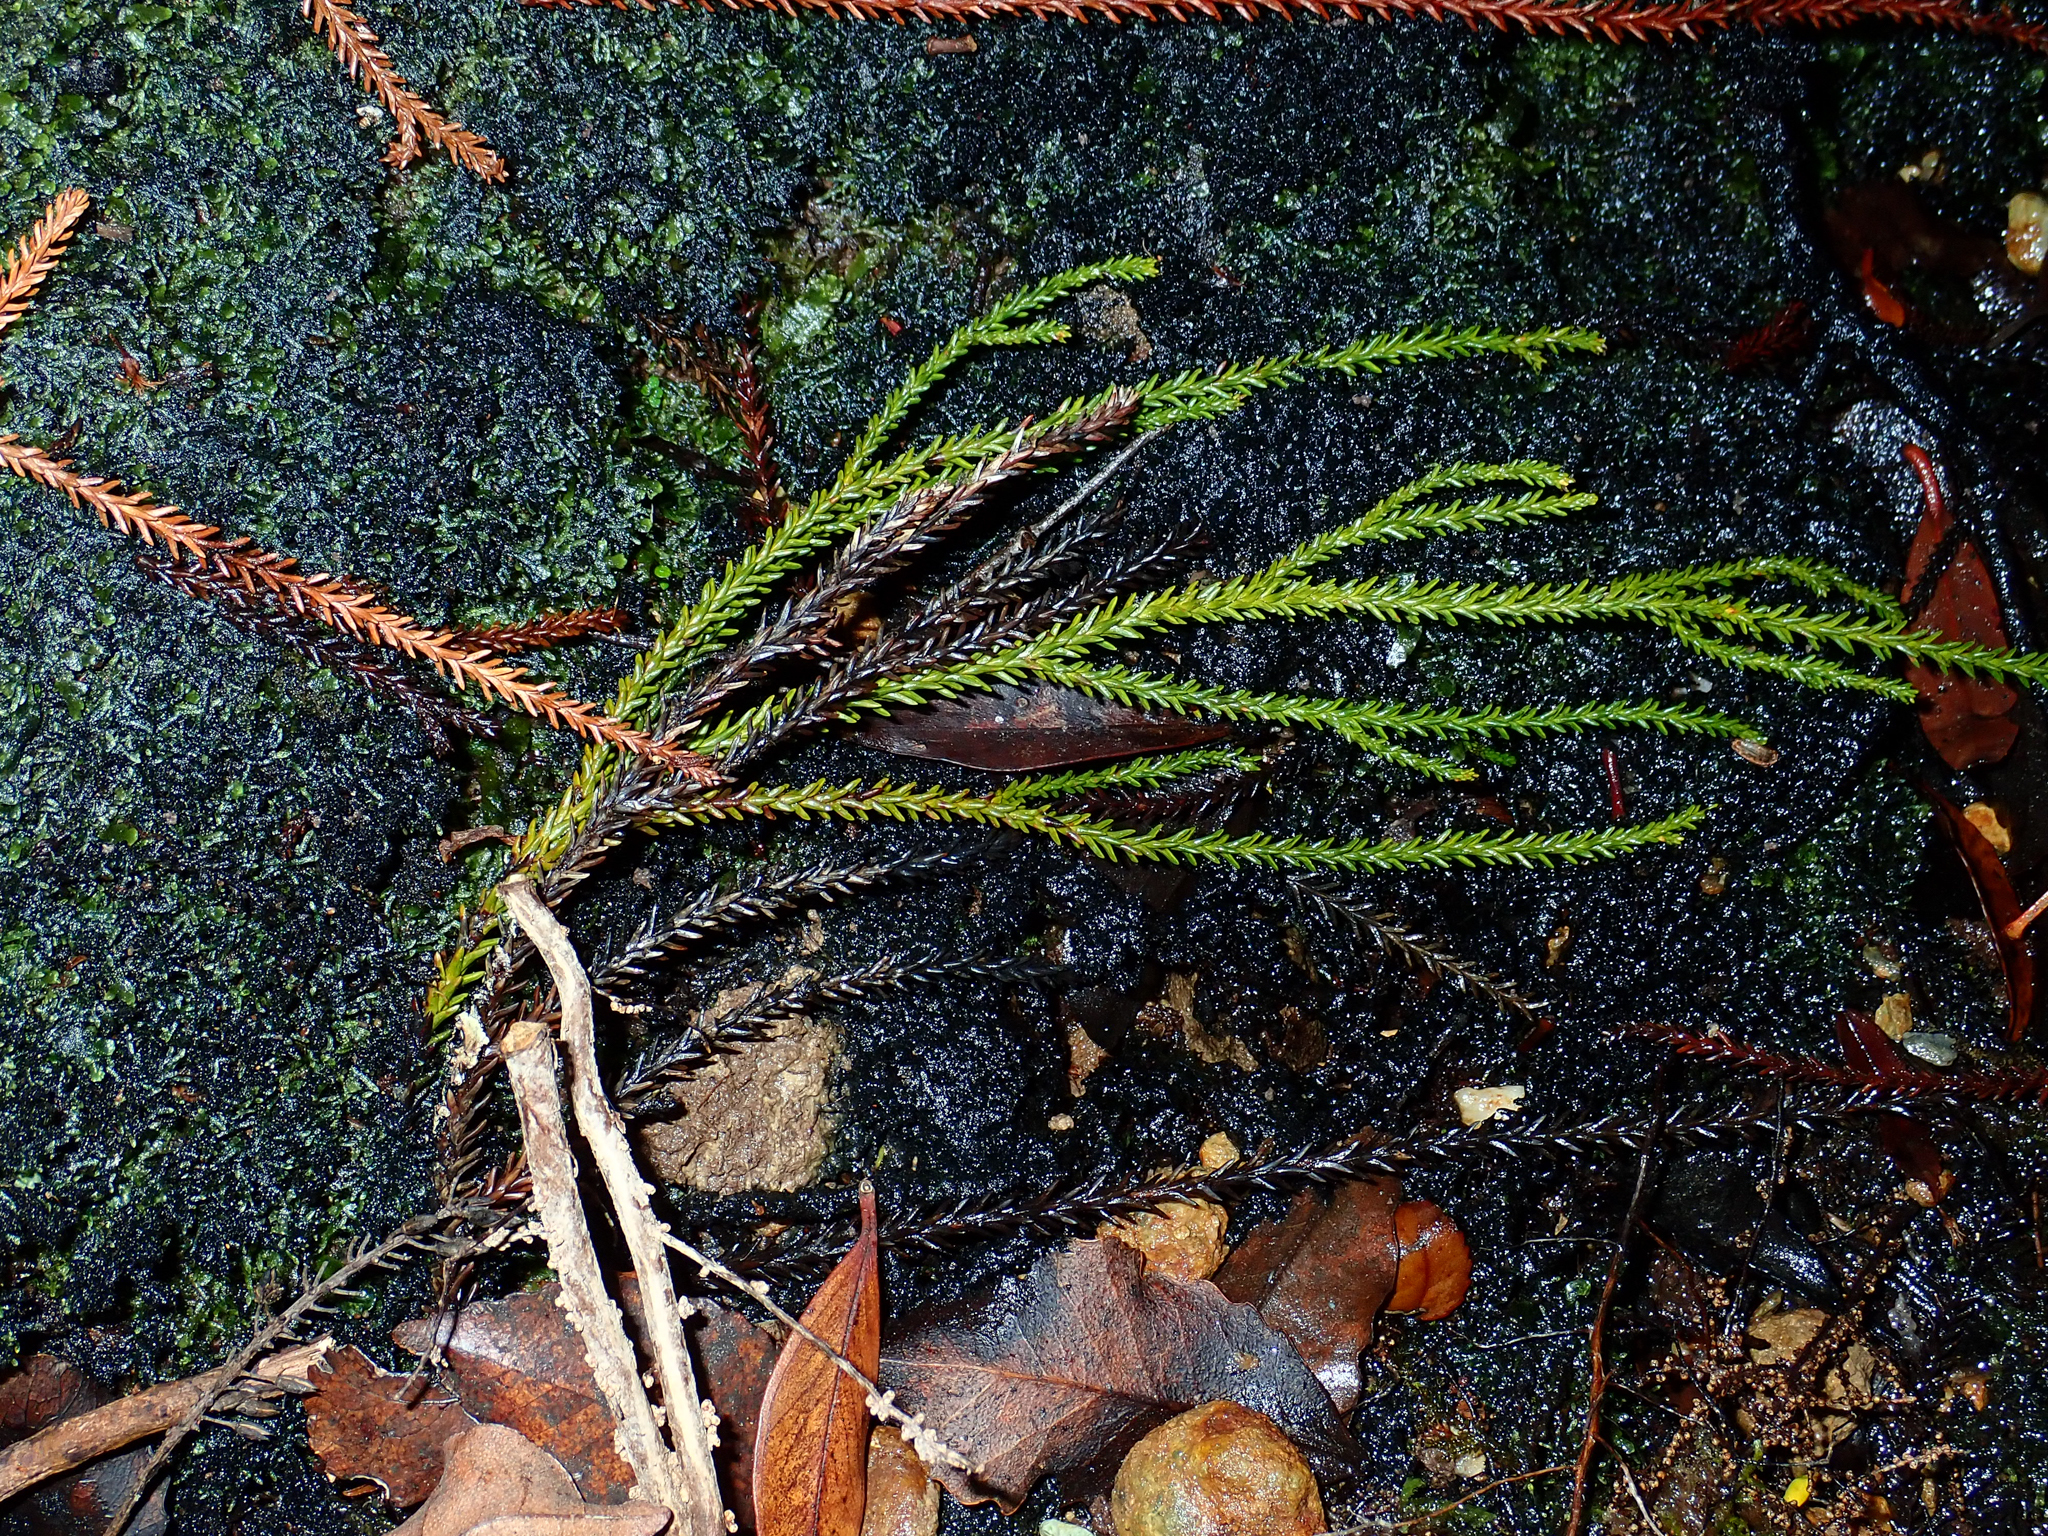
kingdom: Plantae
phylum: Tracheophyta
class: Pinopsida
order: Pinales
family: Podocarpaceae
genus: Dacrydium
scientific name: Dacrydium cupressinum
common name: Red pine
